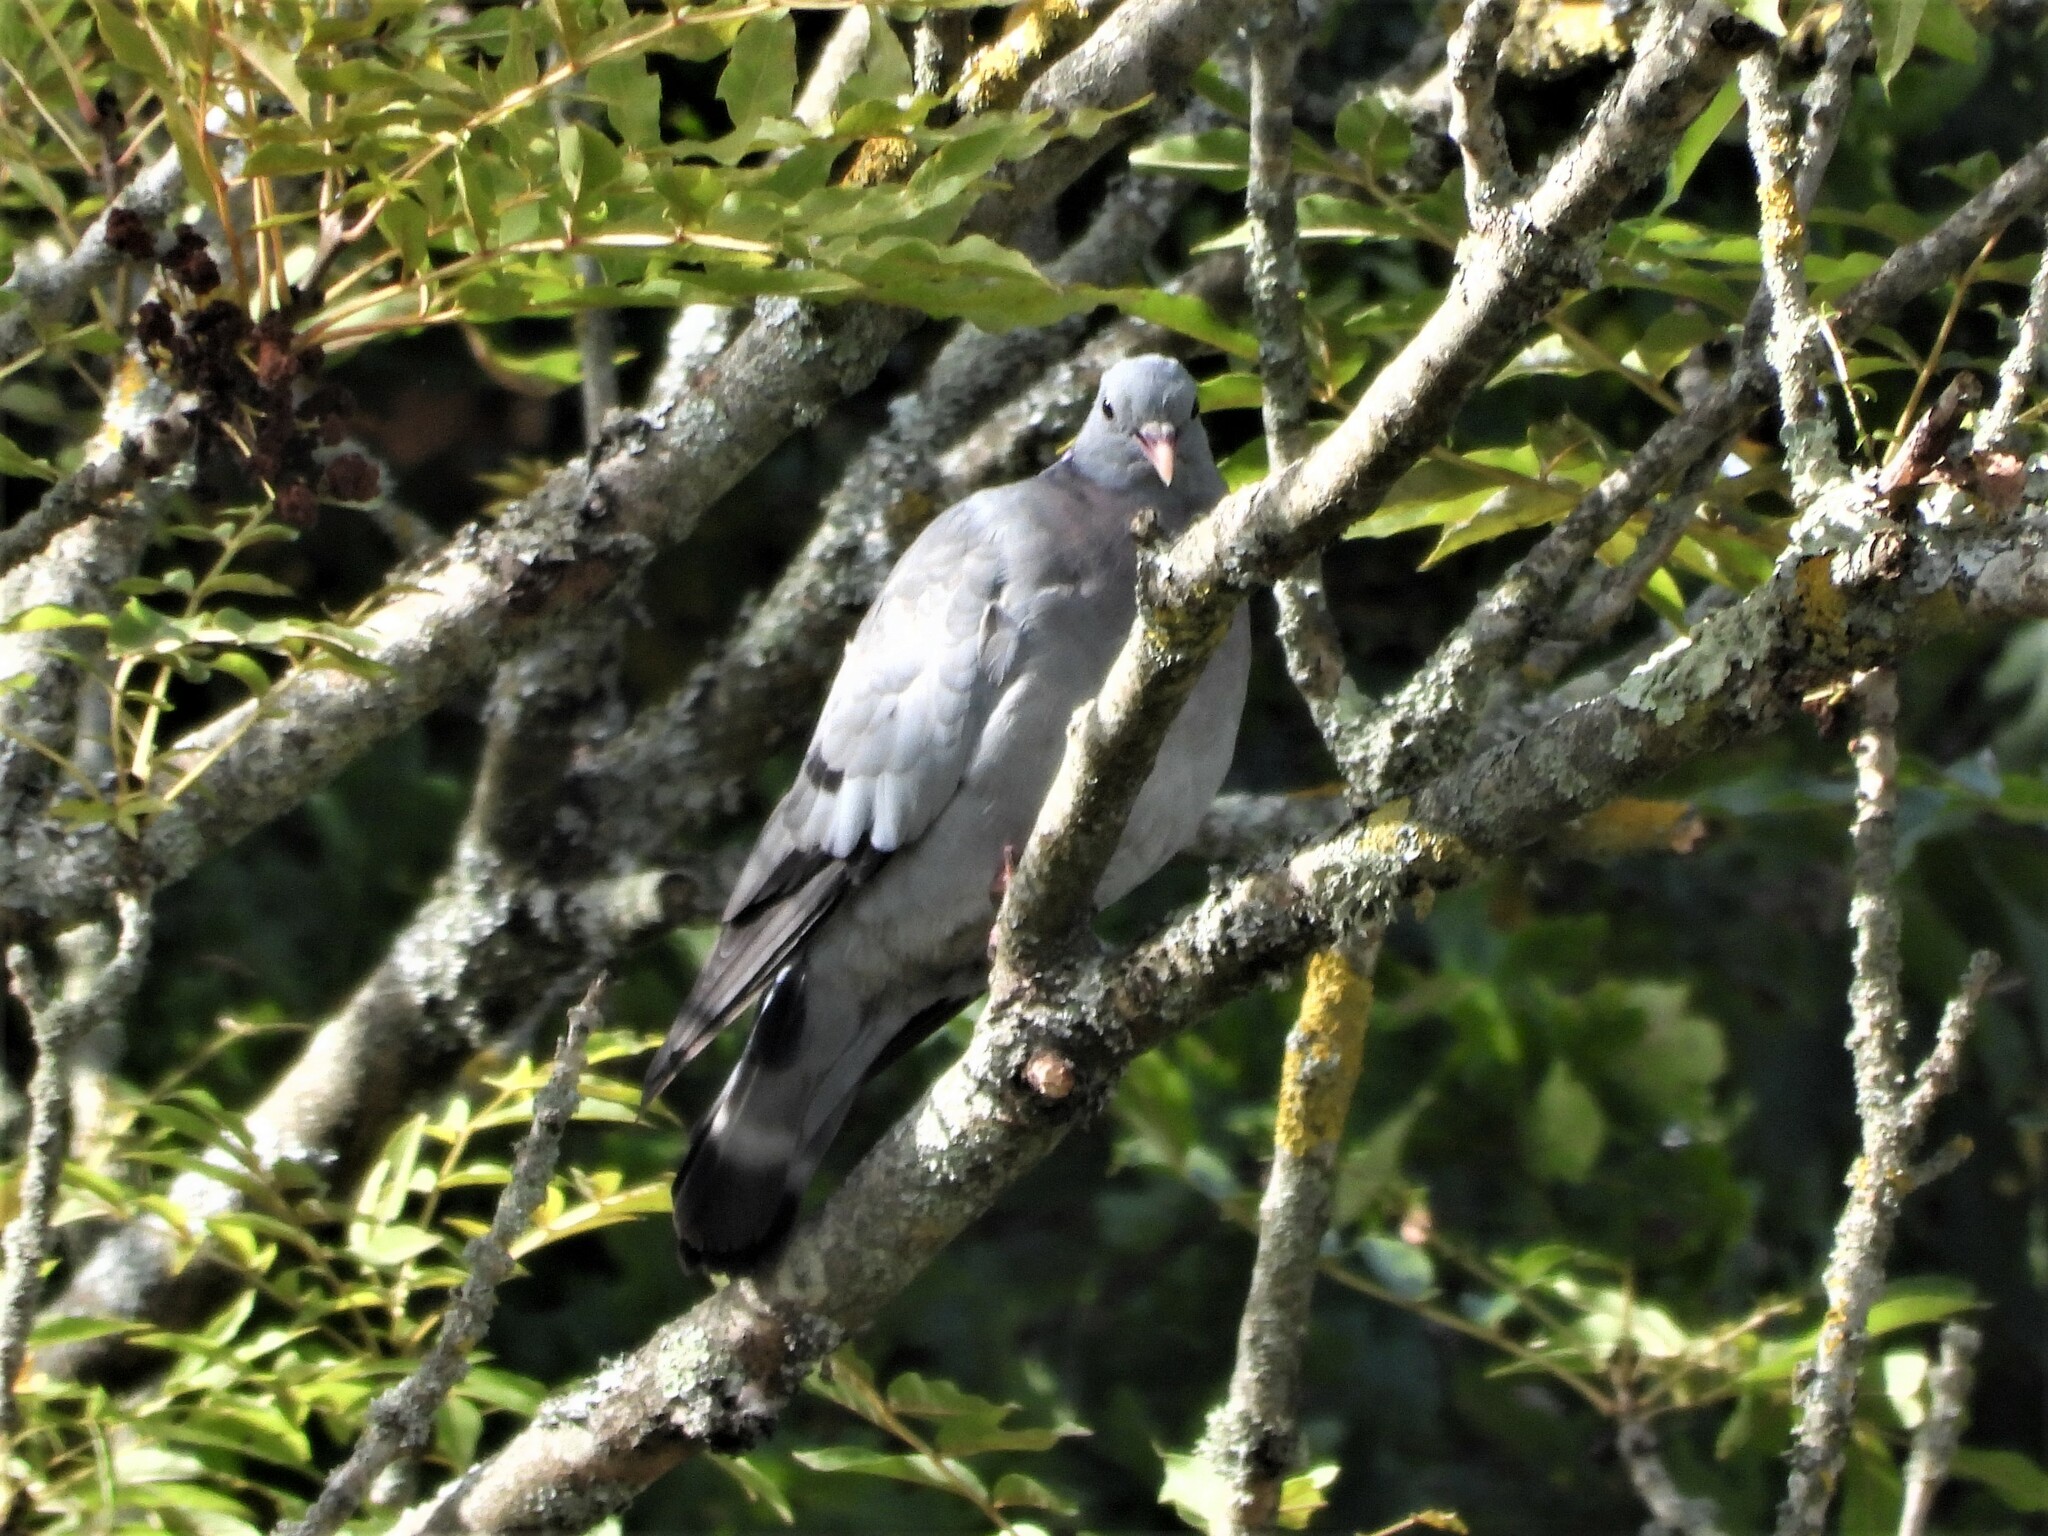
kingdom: Animalia
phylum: Chordata
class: Aves
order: Columbiformes
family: Columbidae
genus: Columba
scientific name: Columba oenas
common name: Stock dove
